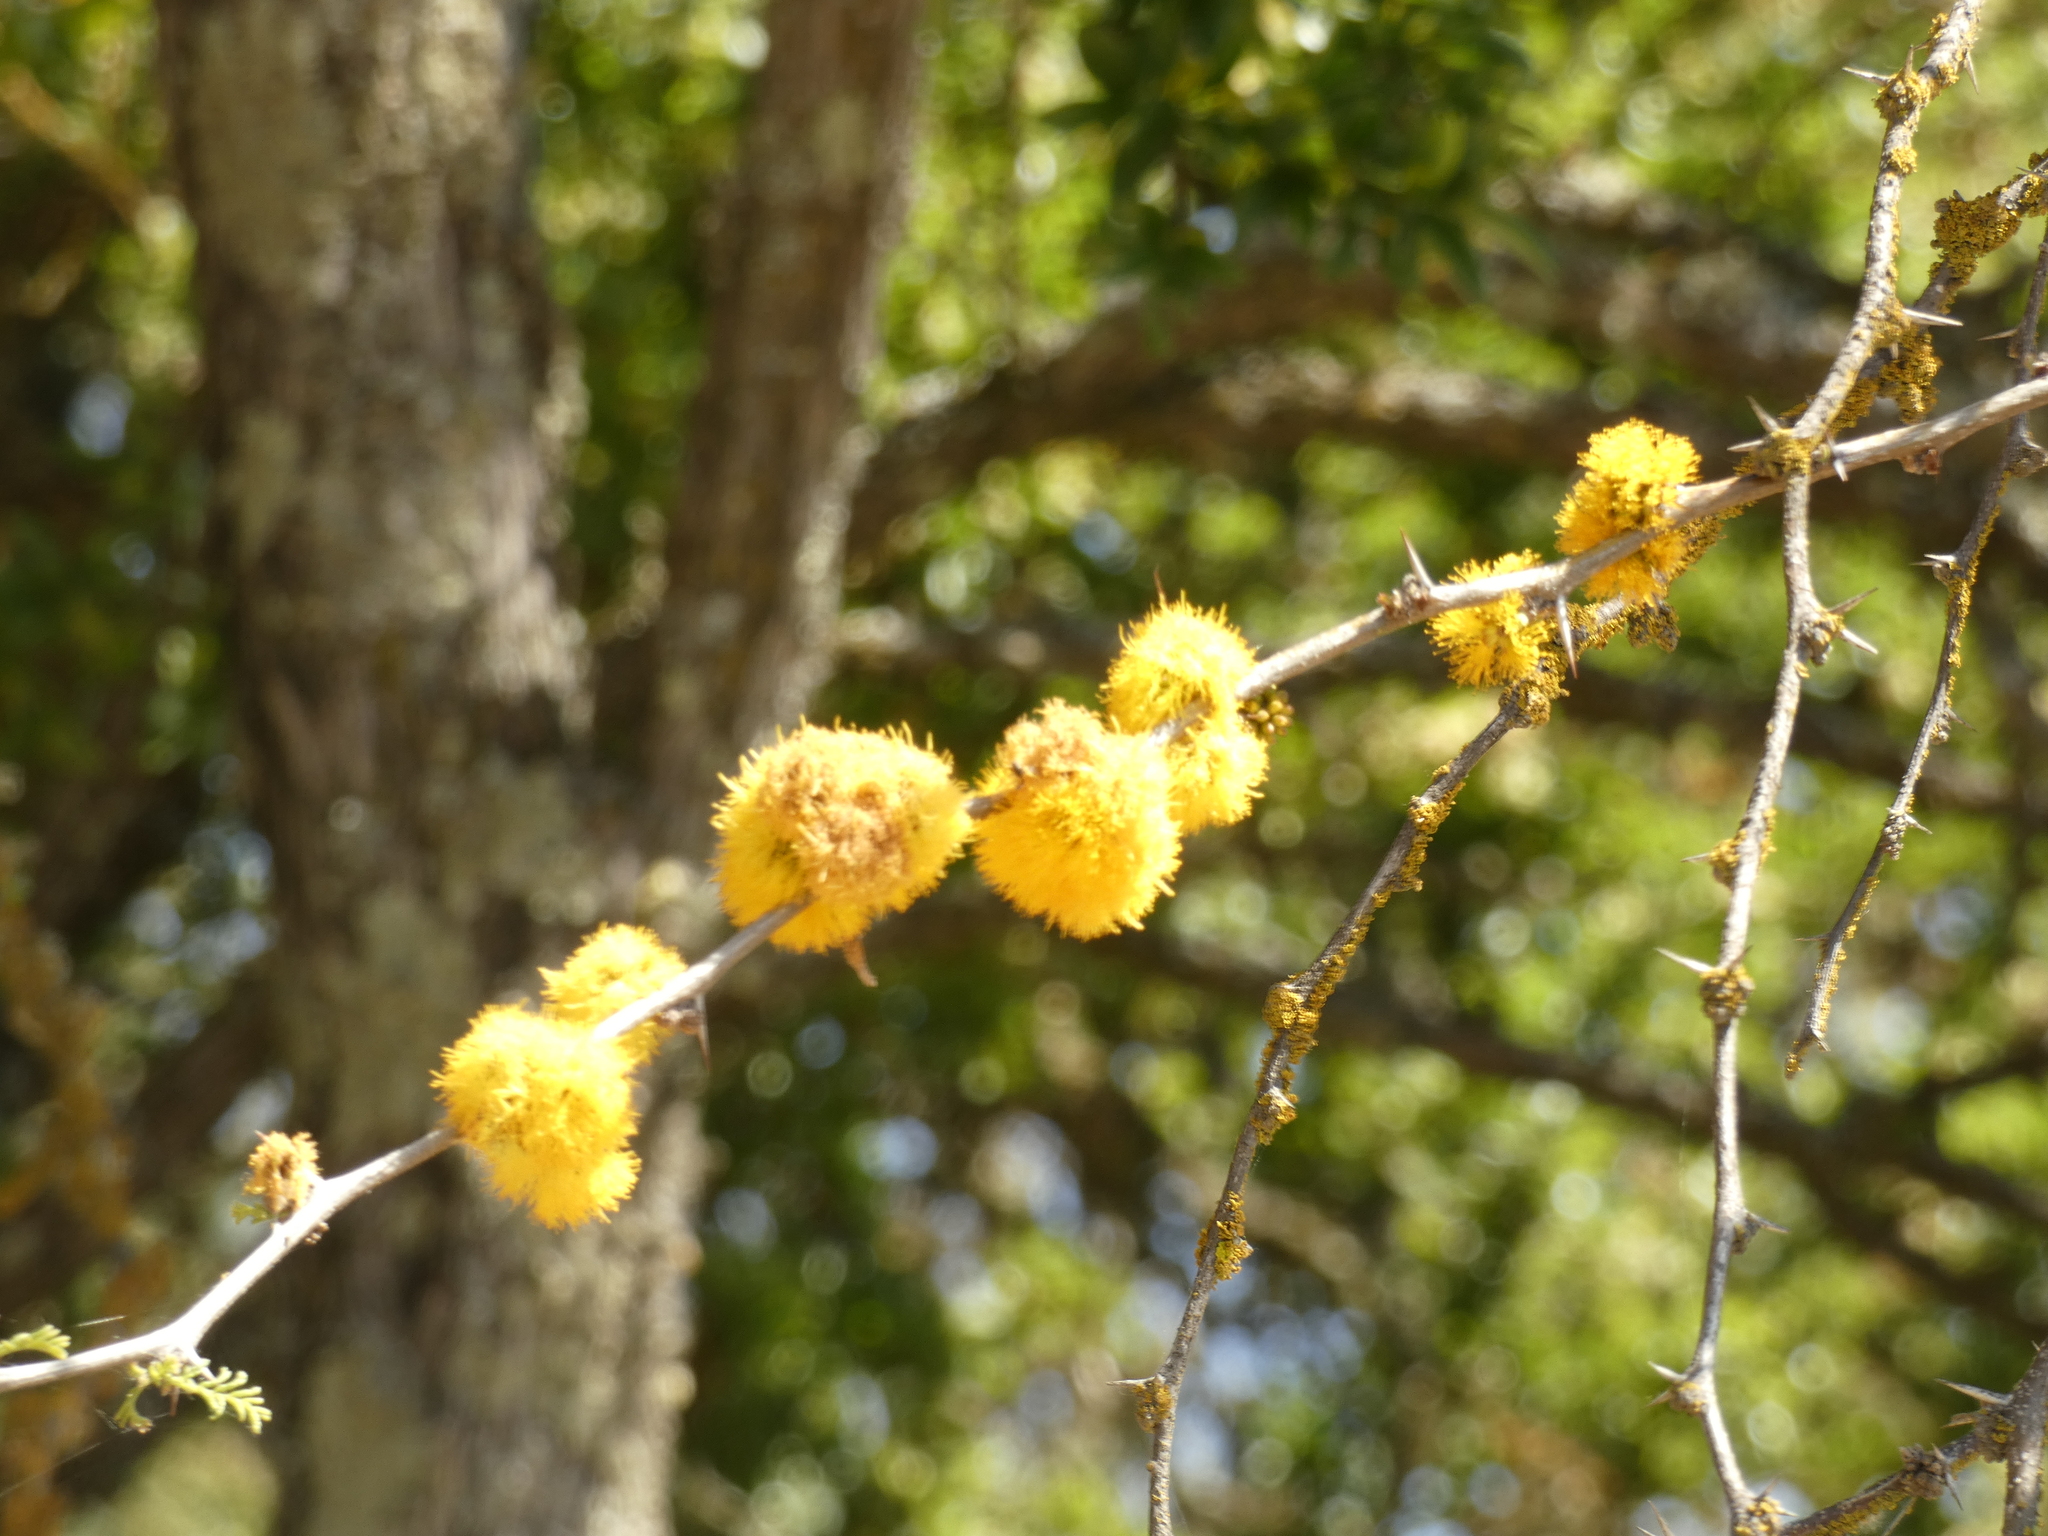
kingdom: Plantae
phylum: Tracheophyta
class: Magnoliopsida
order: Fabales
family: Fabaceae
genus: Vachellia
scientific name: Vachellia caven
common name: Roman cassie
